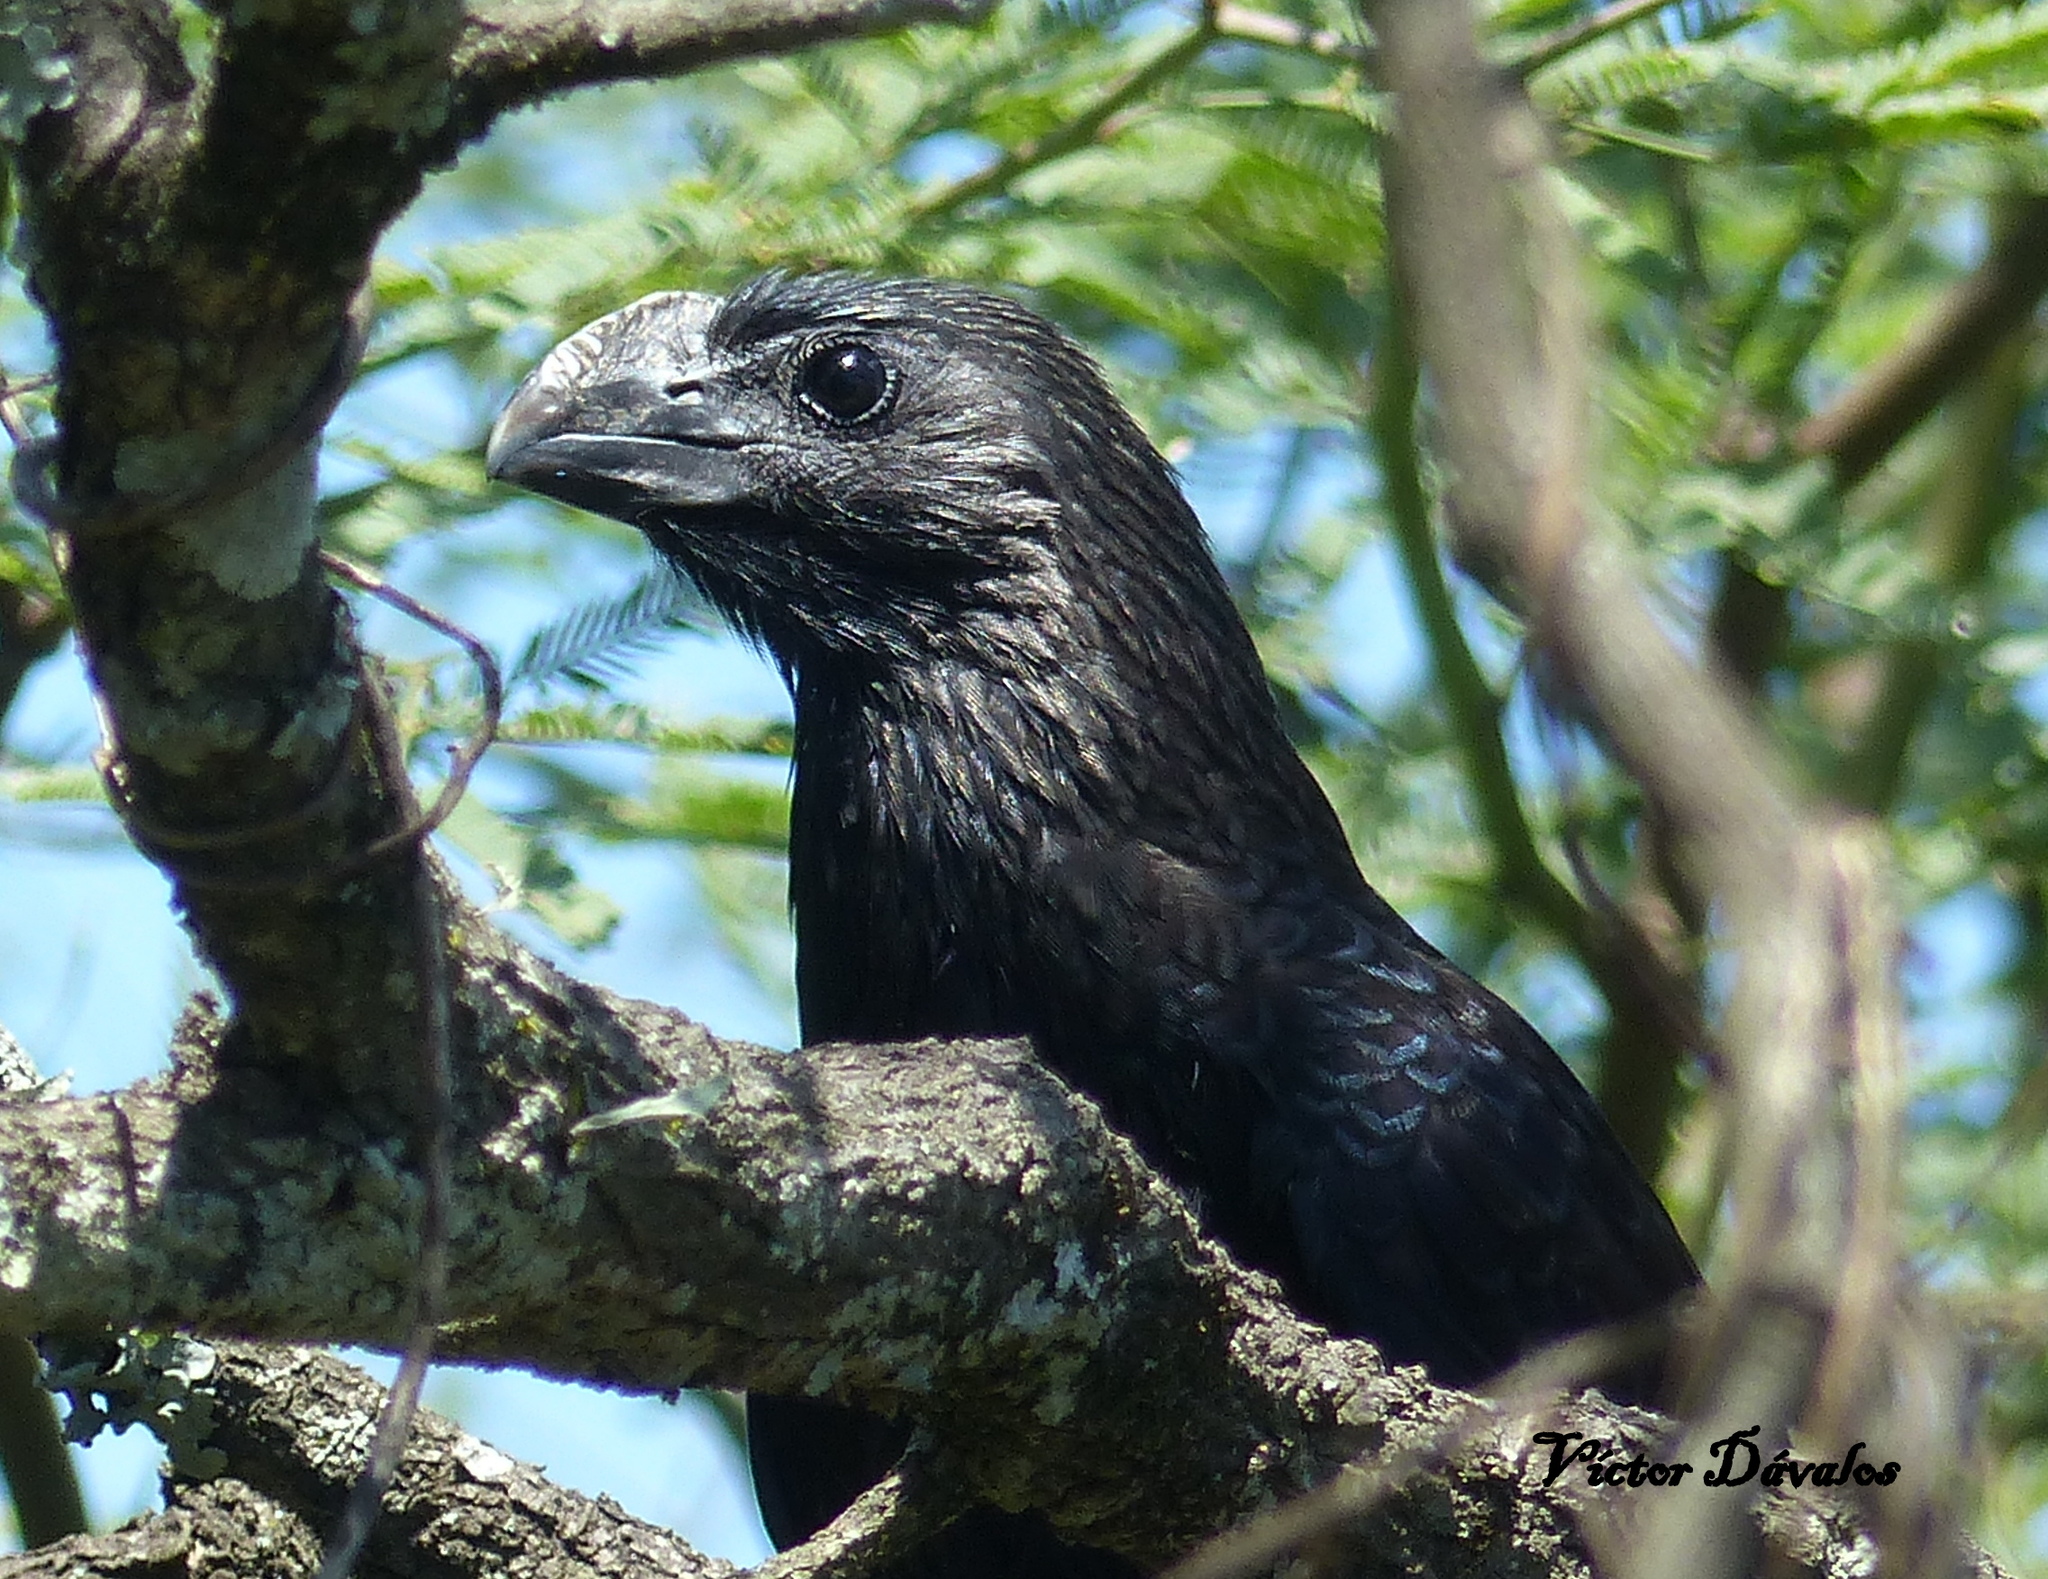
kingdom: Animalia
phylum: Chordata
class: Aves
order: Cuculiformes
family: Cuculidae
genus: Crotophaga
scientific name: Crotophaga ani
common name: Smooth-billed ani
